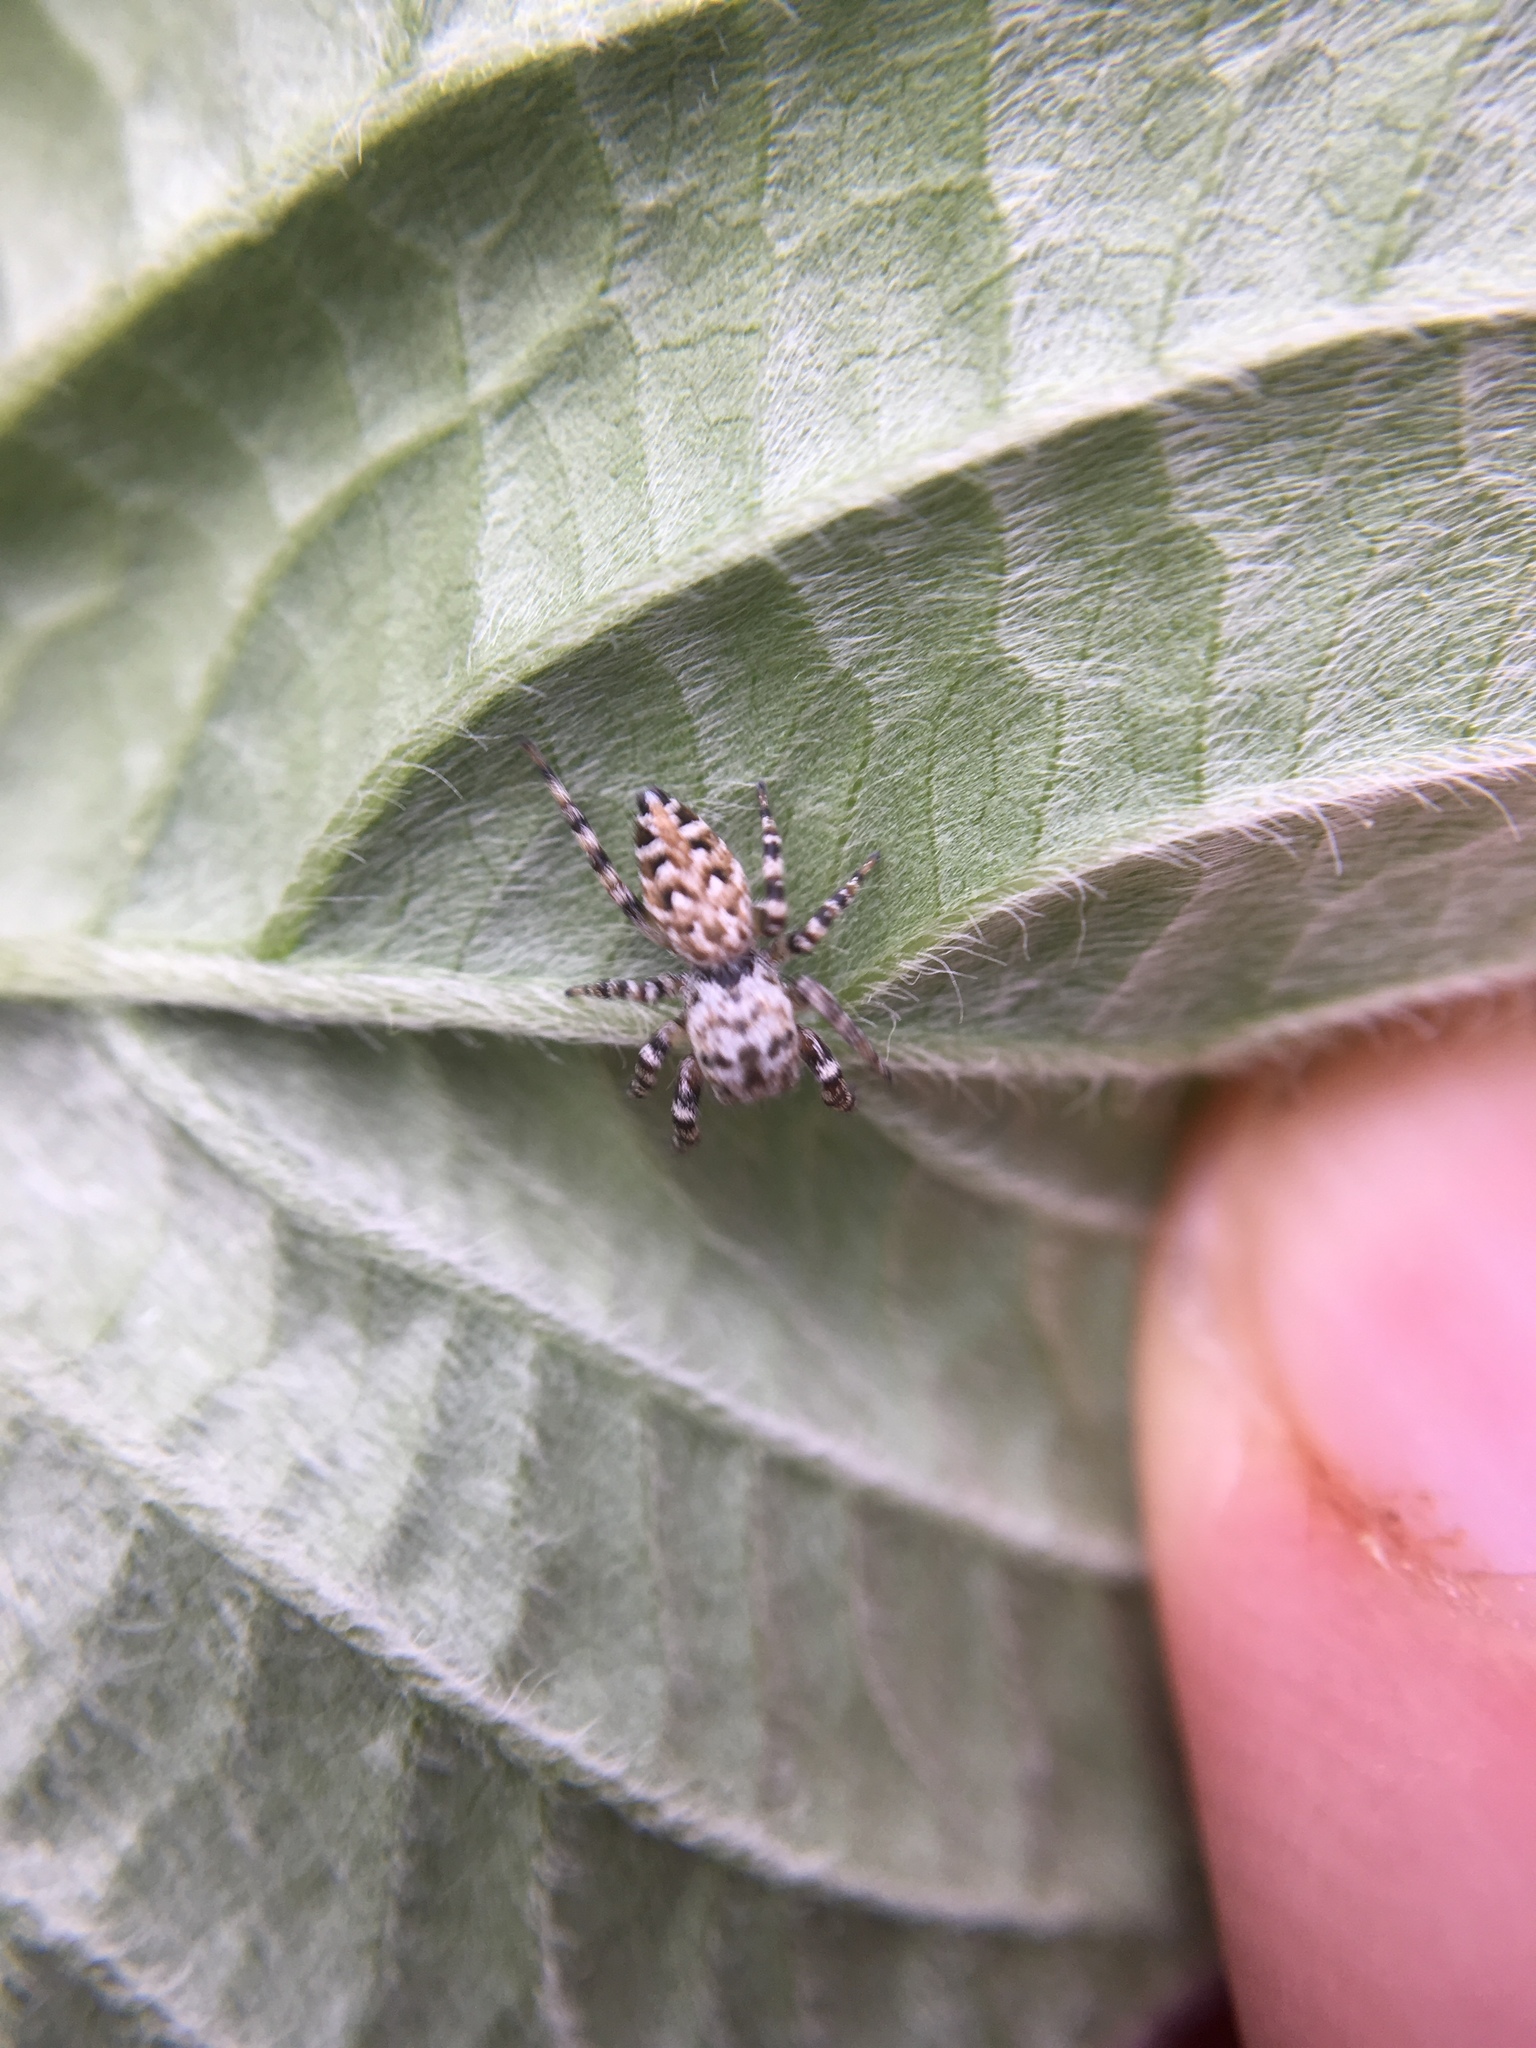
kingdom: Animalia
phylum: Arthropoda
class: Arachnida
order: Araneae
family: Salticidae
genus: Pelegrina
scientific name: Pelegrina galathea
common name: Jumping spiders
